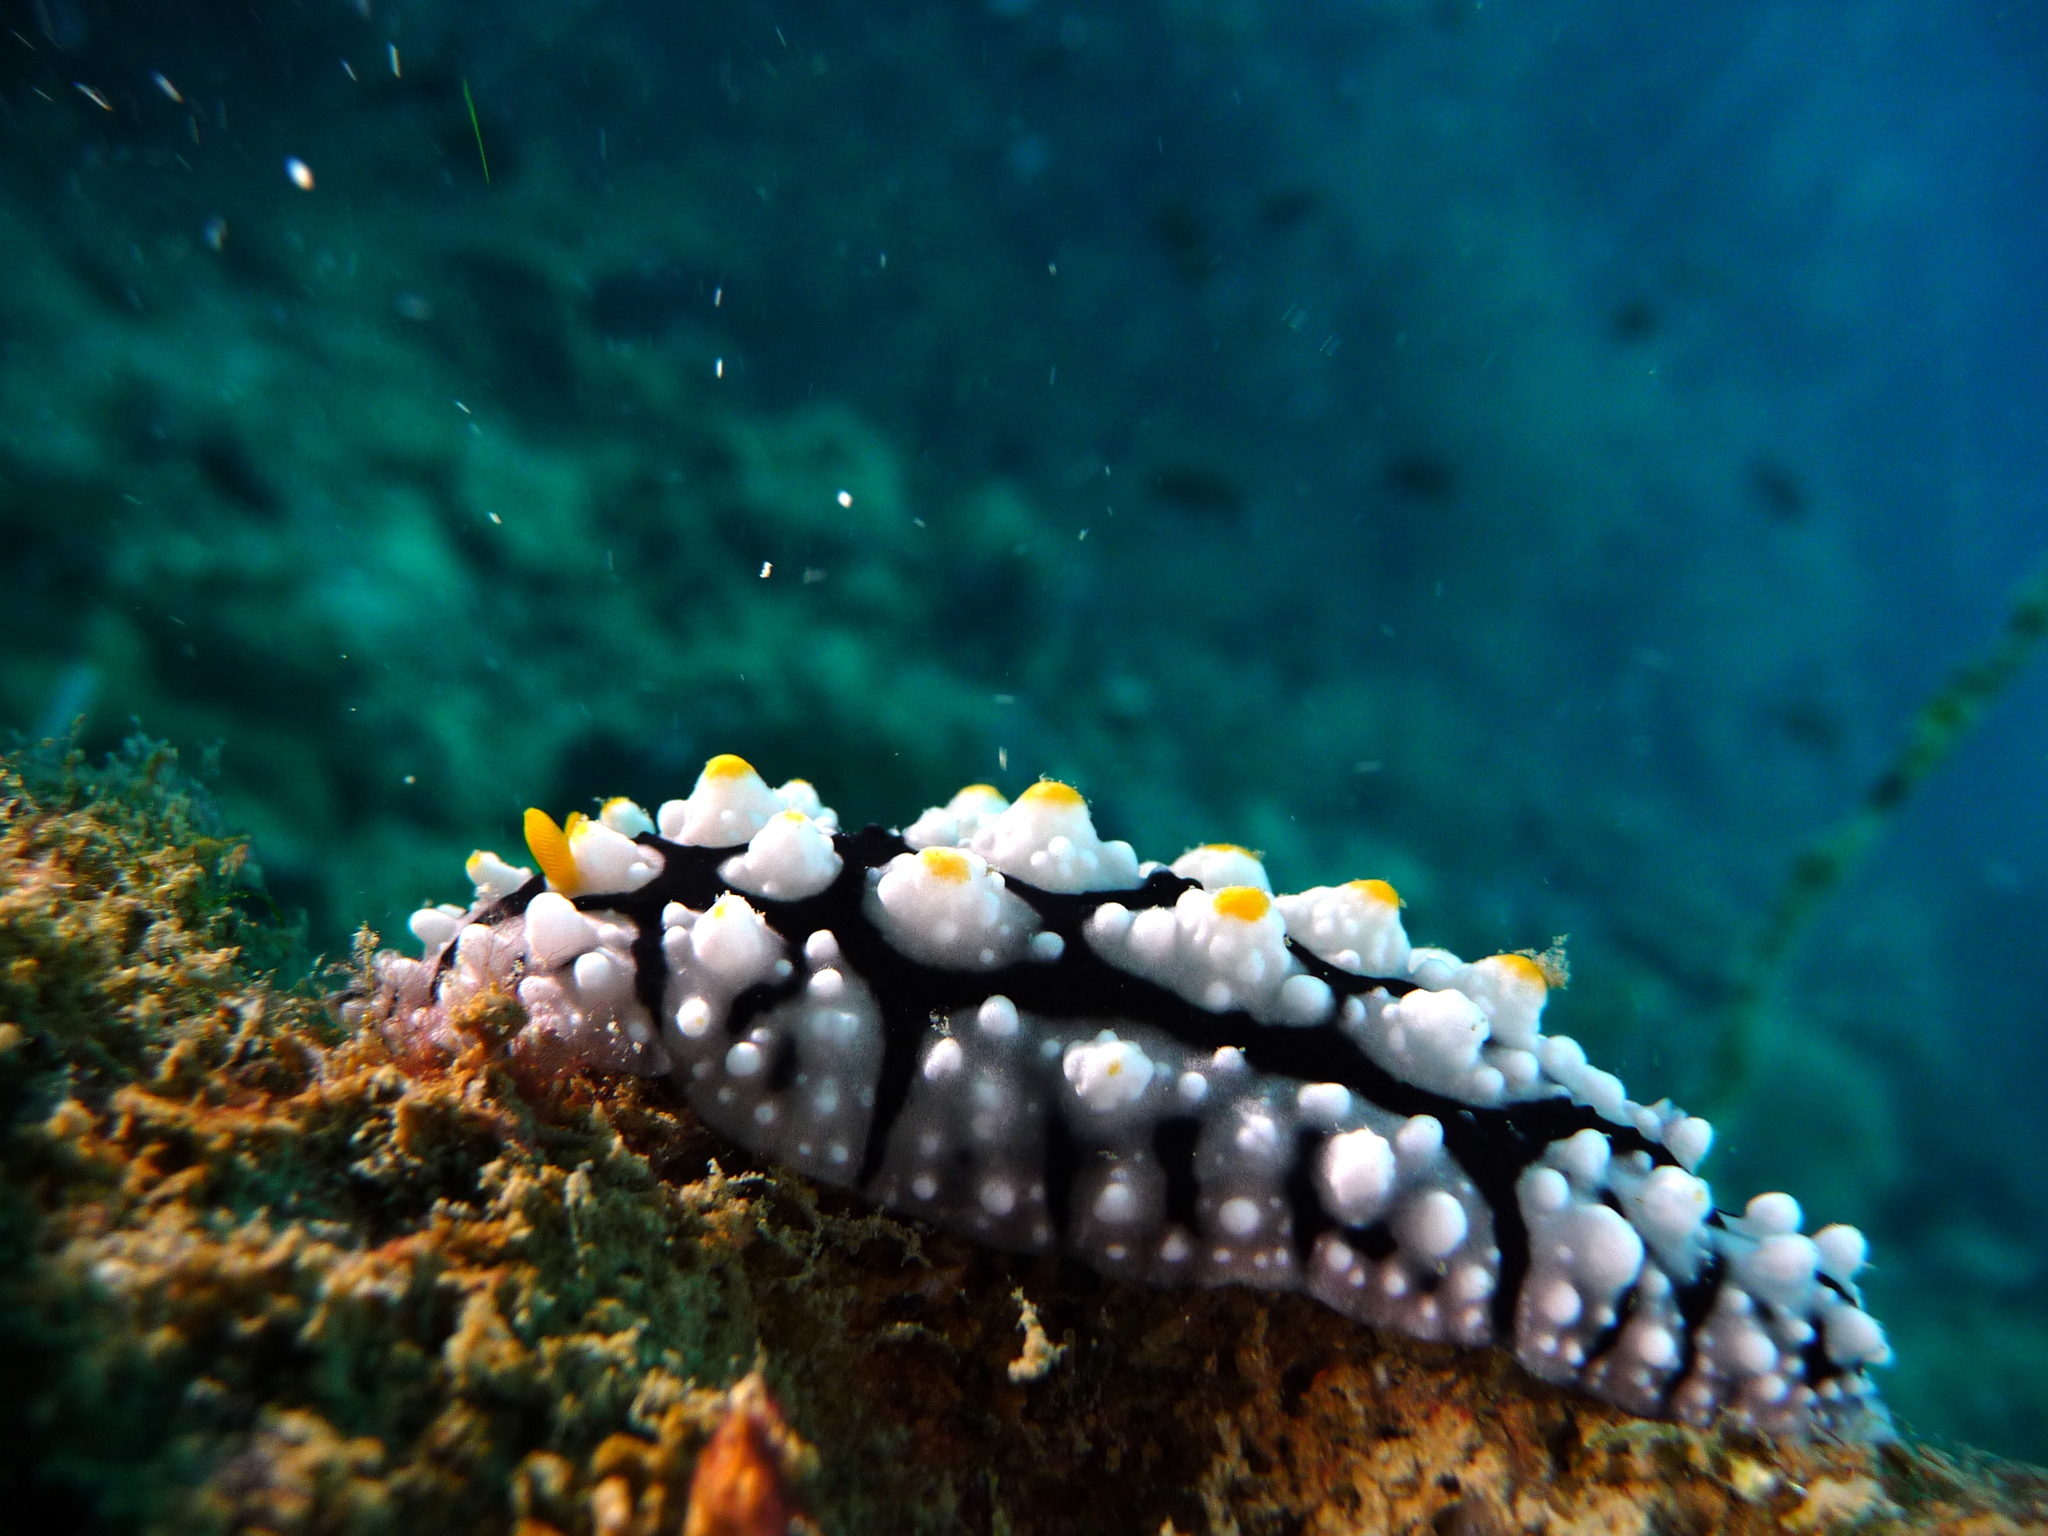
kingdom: Animalia
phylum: Mollusca
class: Gastropoda
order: Nudibranchia
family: Phyllidiidae
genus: Phyllidia
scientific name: Phyllidia elegans
